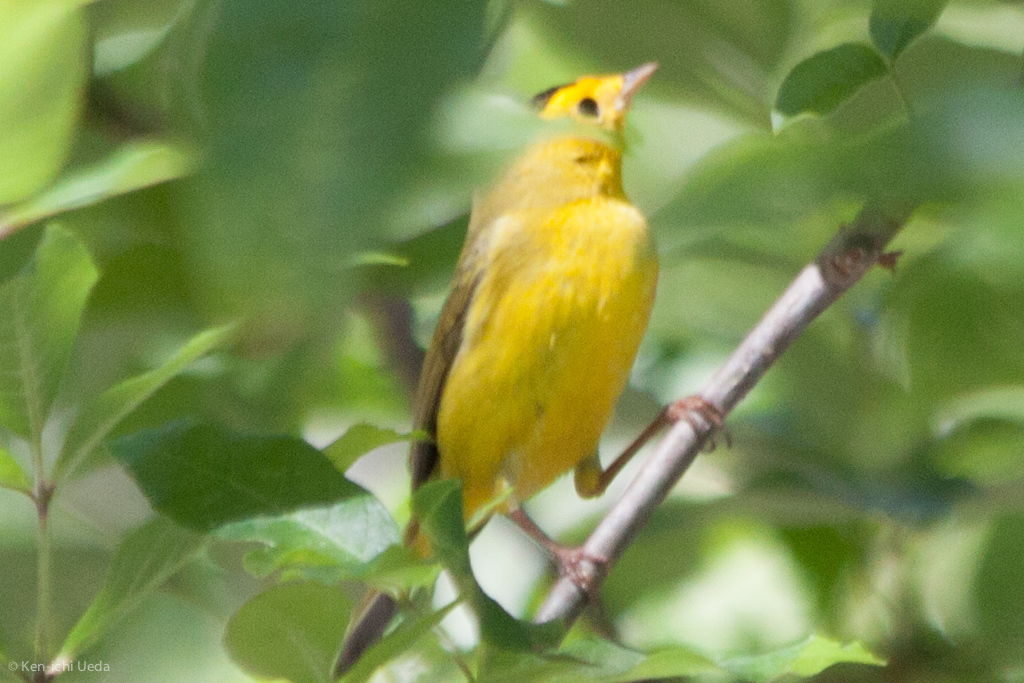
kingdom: Animalia
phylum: Chordata
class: Aves
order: Passeriformes
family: Parulidae
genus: Cardellina
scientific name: Cardellina pusilla
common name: Wilson's warbler
